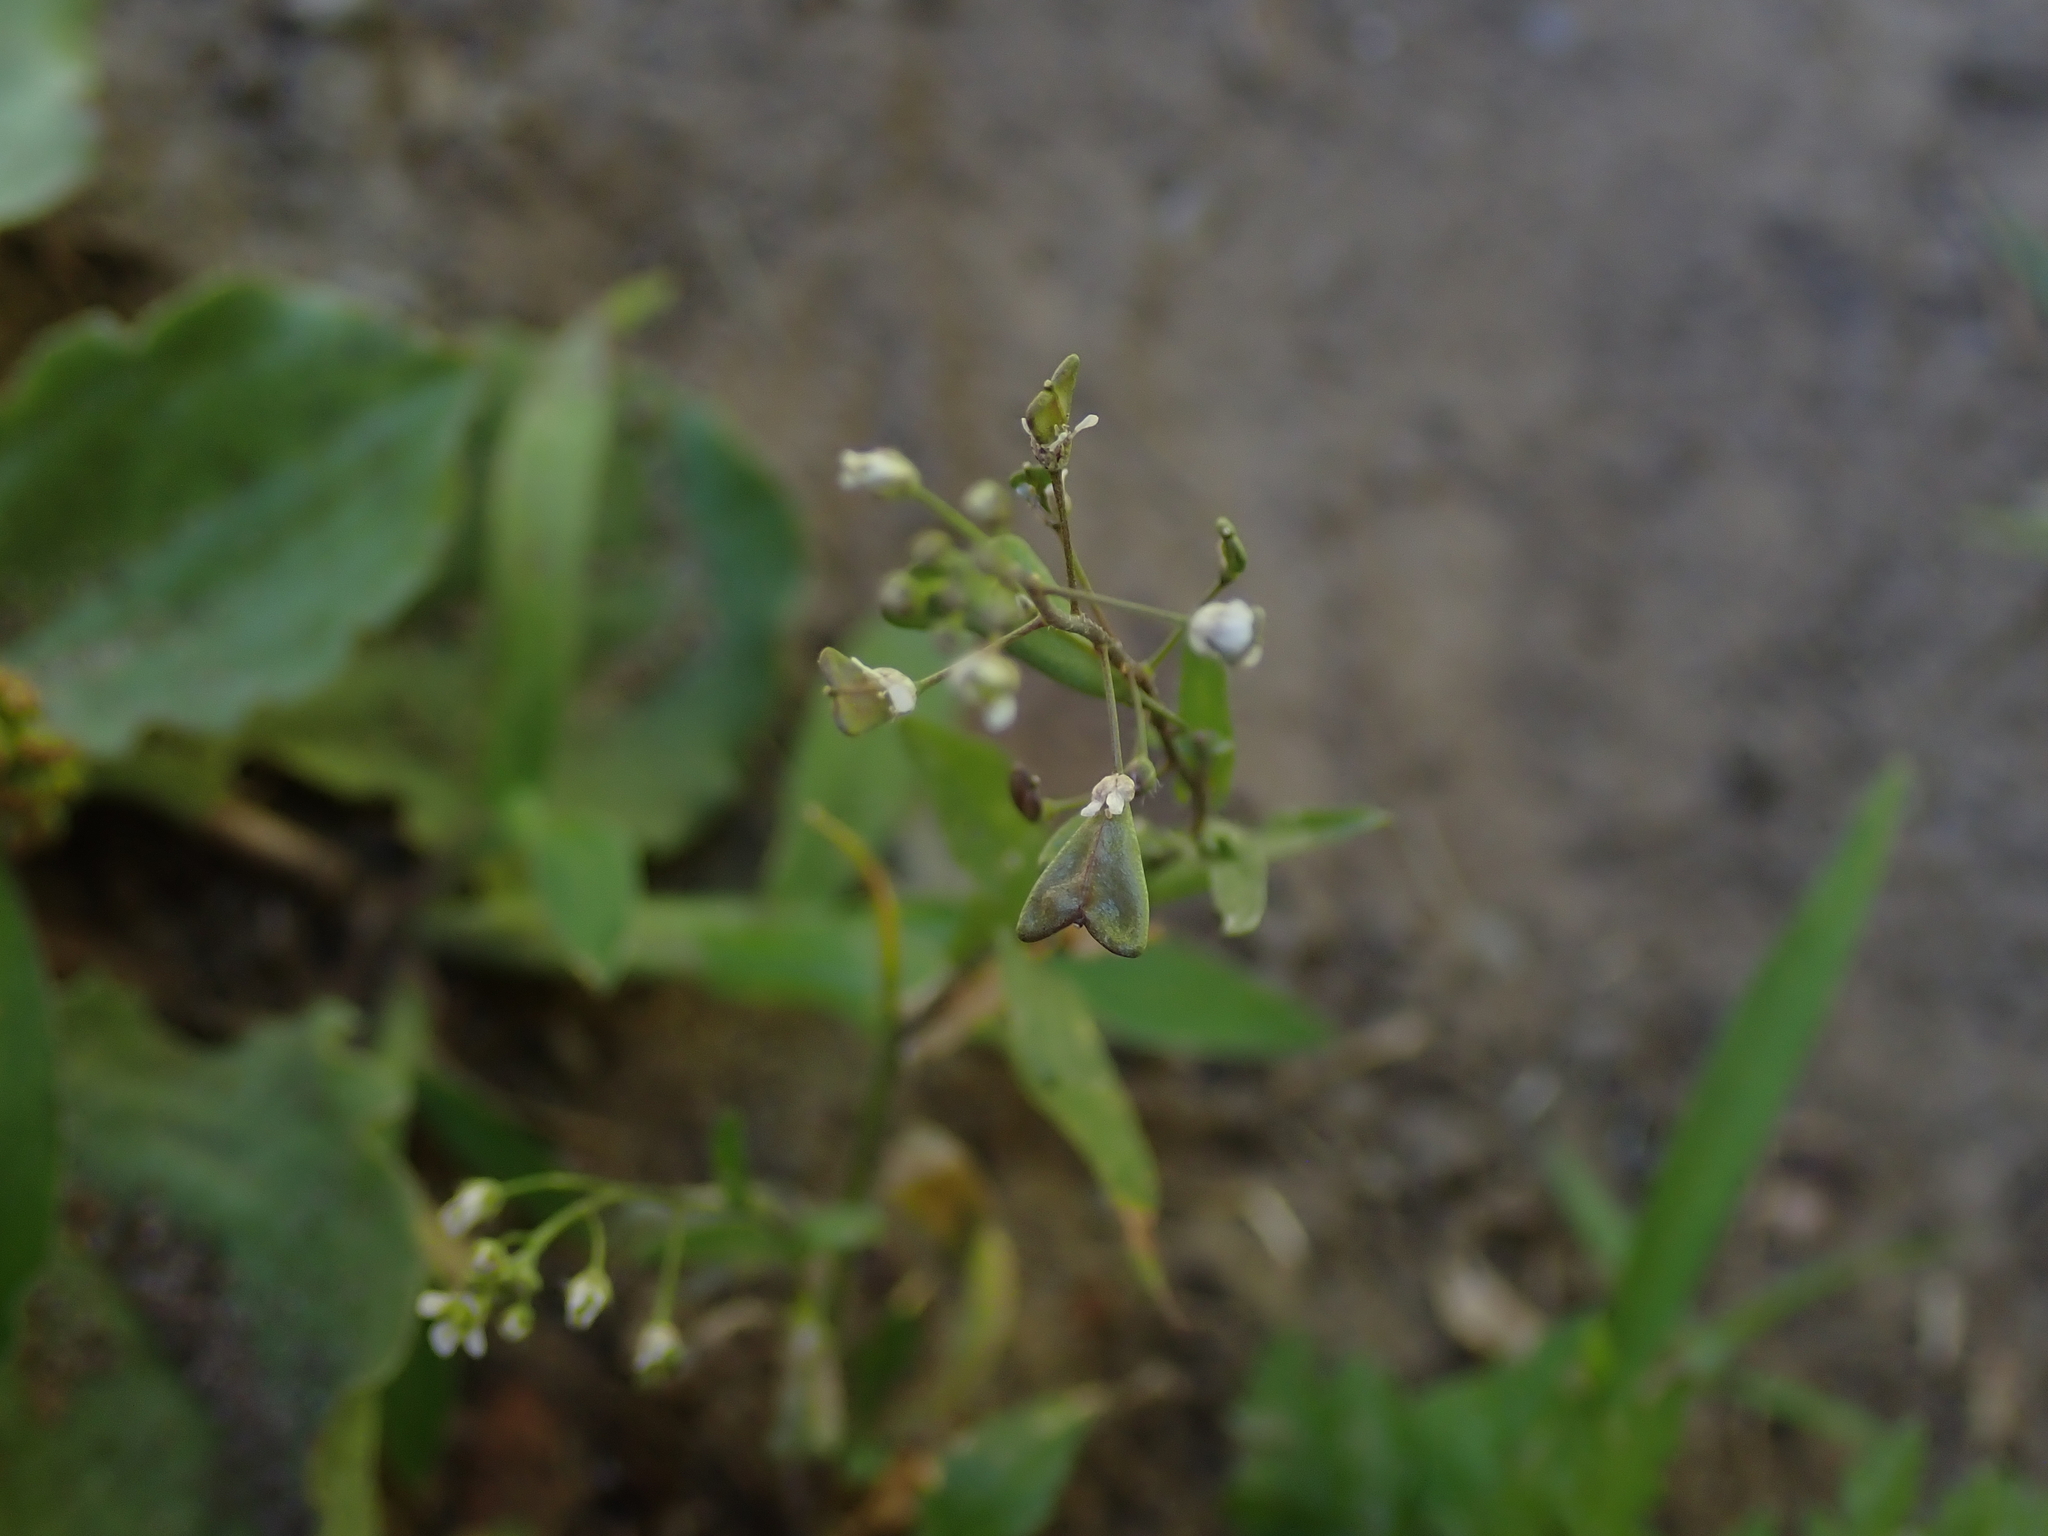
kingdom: Plantae
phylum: Tracheophyta
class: Magnoliopsida
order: Brassicales
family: Brassicaceae
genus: Capsella
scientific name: Capsella bursa-pastoris
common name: Shepherd's purse
